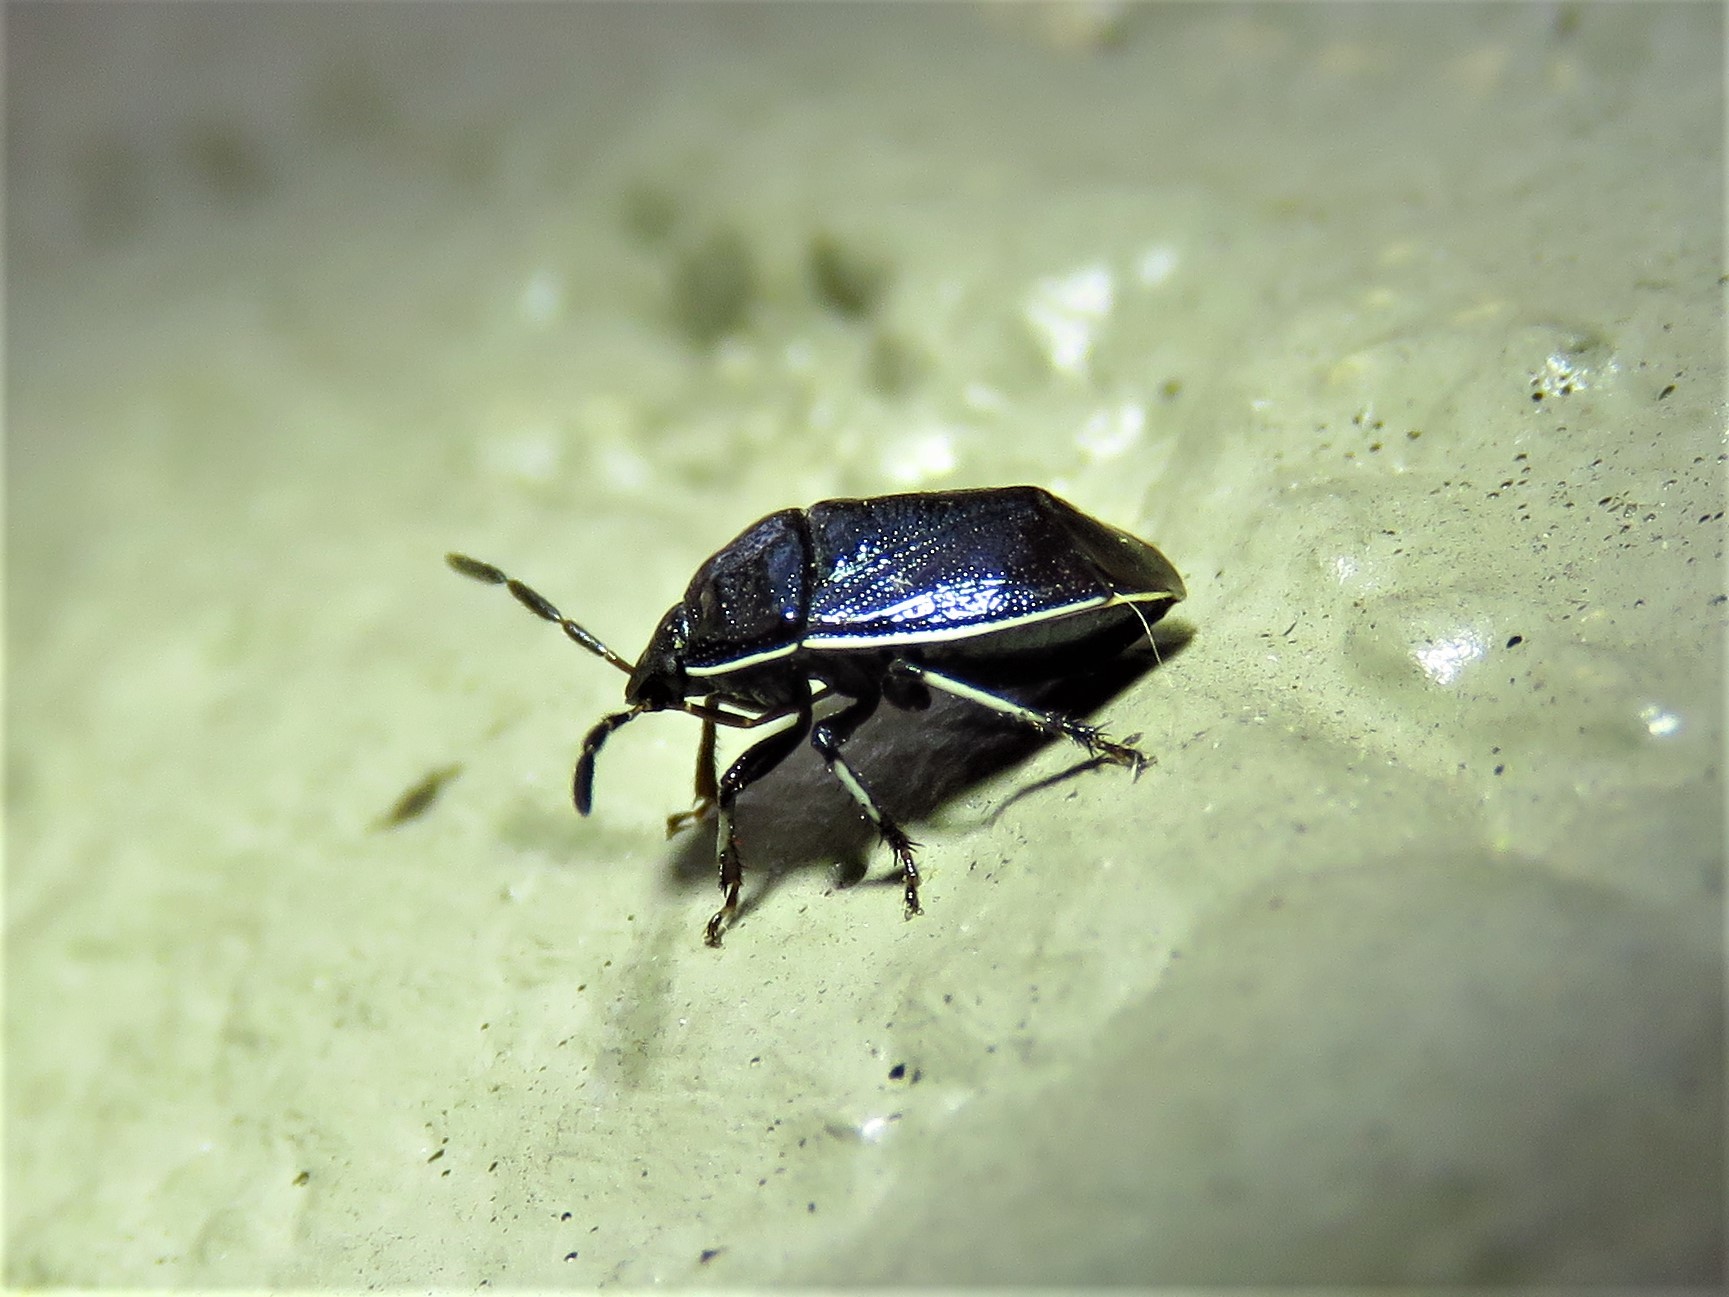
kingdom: Animalia
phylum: Arthropoda
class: Insecta
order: Hemiptera
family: Cydnidae
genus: Sehirus
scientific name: Sehirus cinctus
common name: White-margined burrower bug
